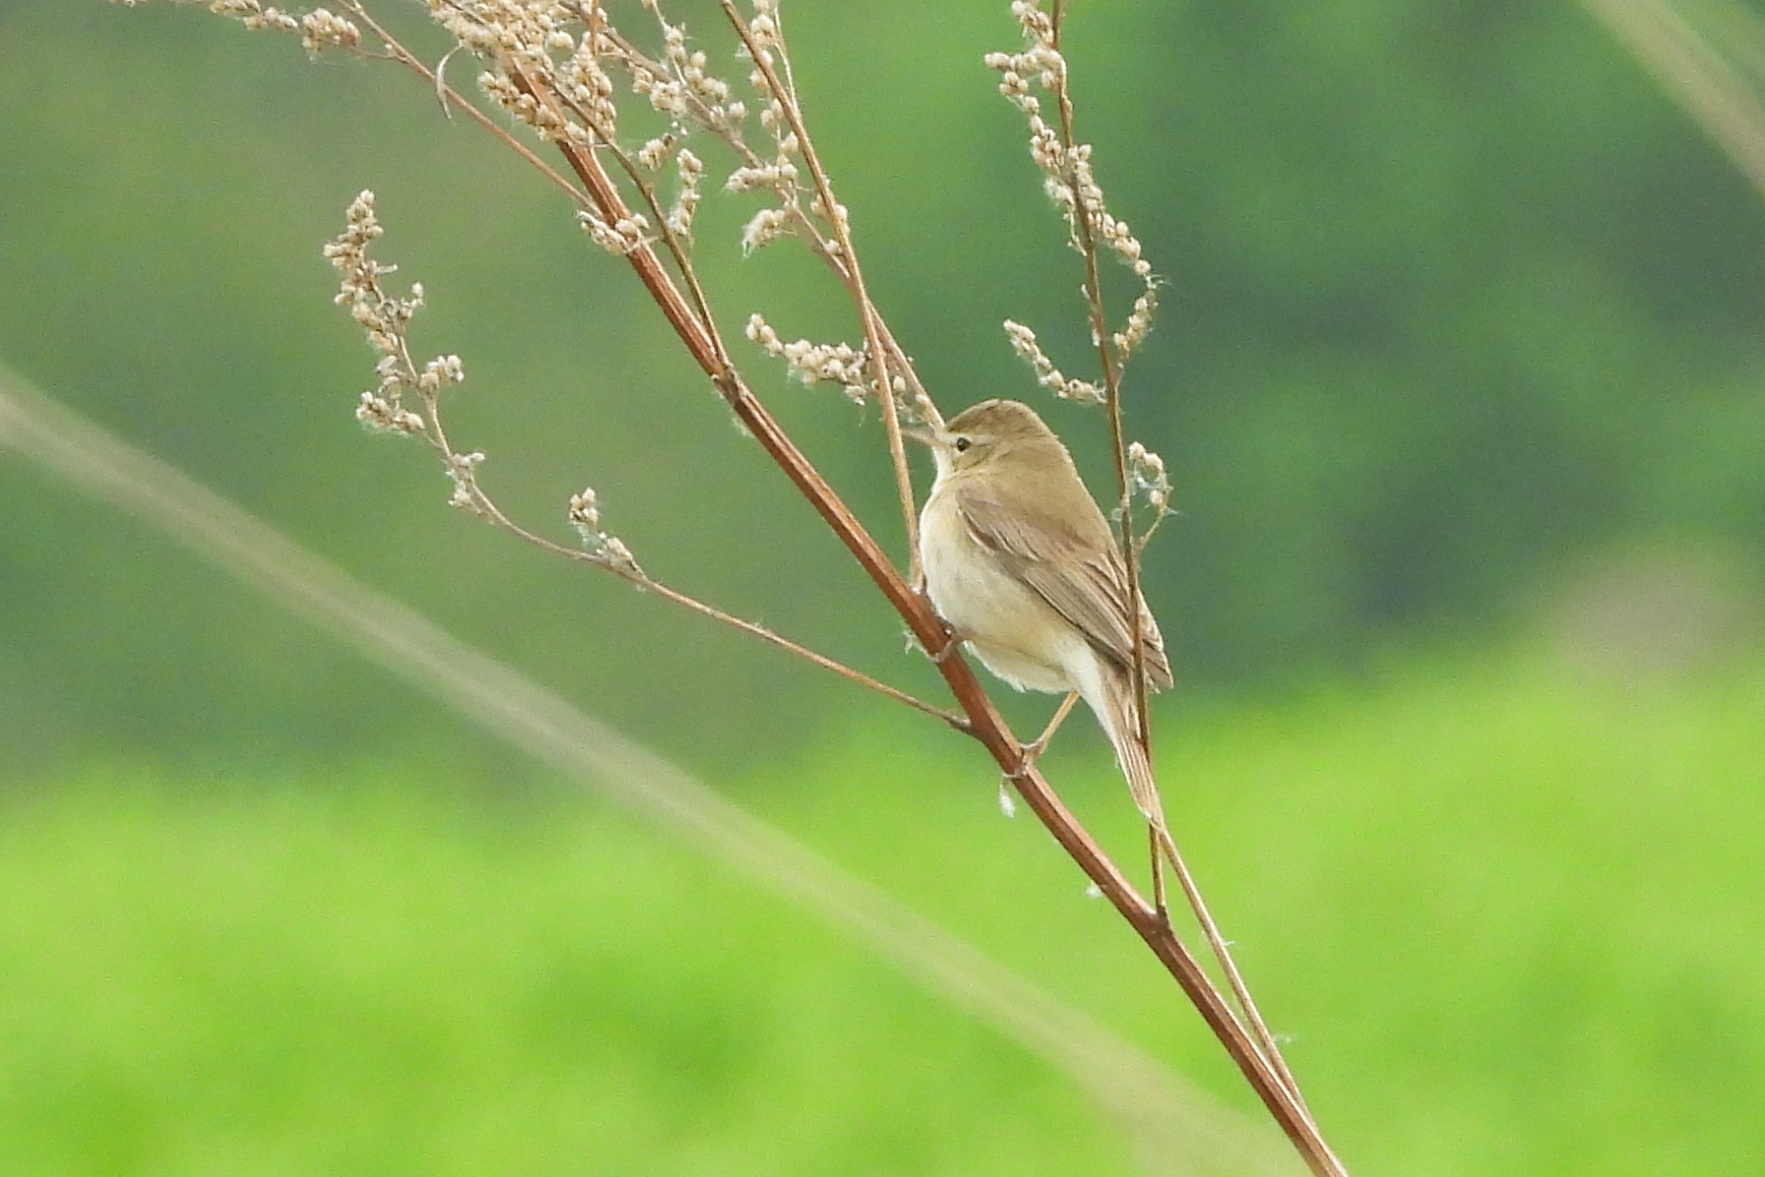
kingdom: Animalia
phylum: Chordata
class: Aves
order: Passeriformes
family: Acrocephalidae
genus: Iduna
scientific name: Iduna caligata
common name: Booted warbler
